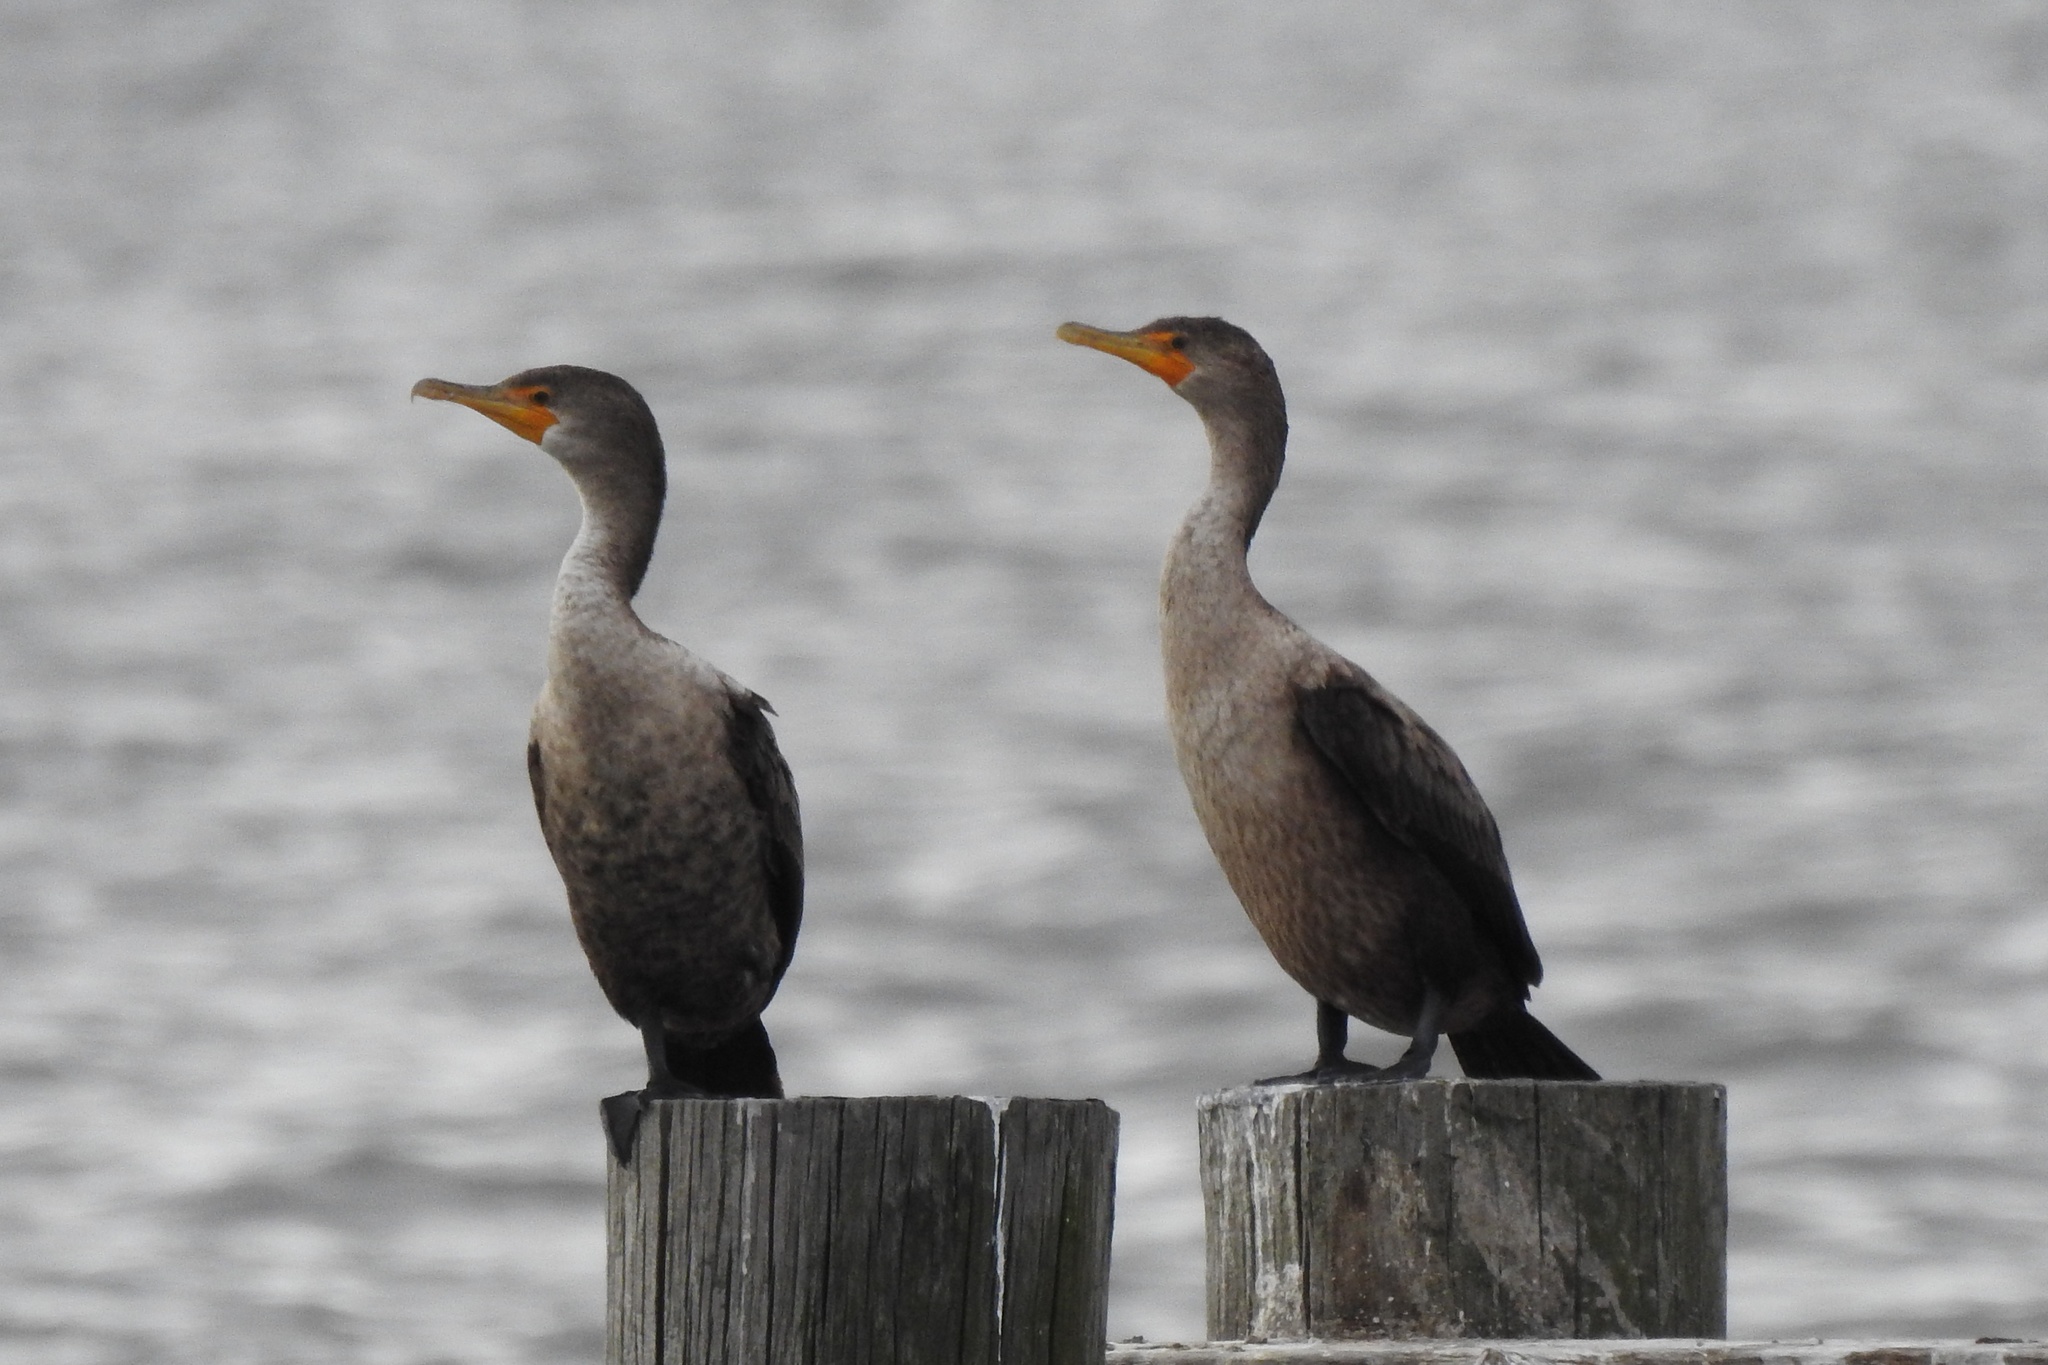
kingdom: Animalia
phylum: Chordata
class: Aves
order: Suliformes
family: Phalacrocoracidae
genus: Phalacrocorax
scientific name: Phalacrocorax auritus
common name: Double-crested cormorant
